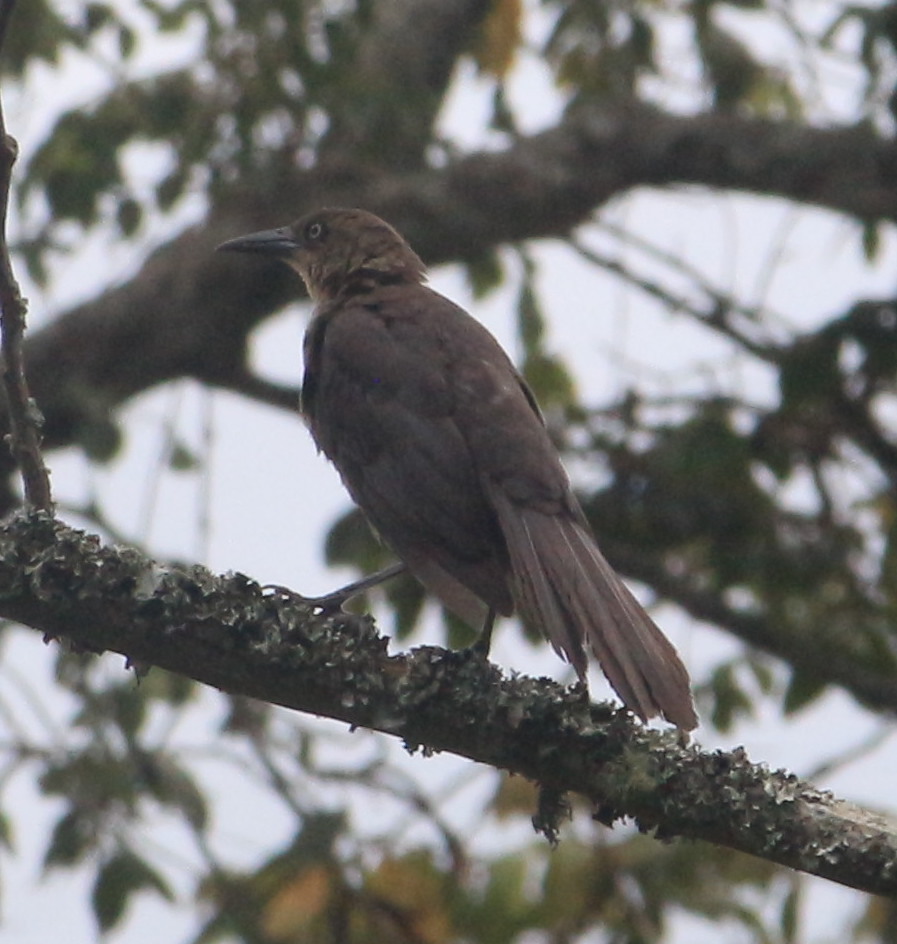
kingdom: Animalia
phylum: Chordata
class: Aves
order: Passeriformes
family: Icteridae
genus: Quiscalus
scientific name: Quiscalus mexicanus
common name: Great-tailed grackle
